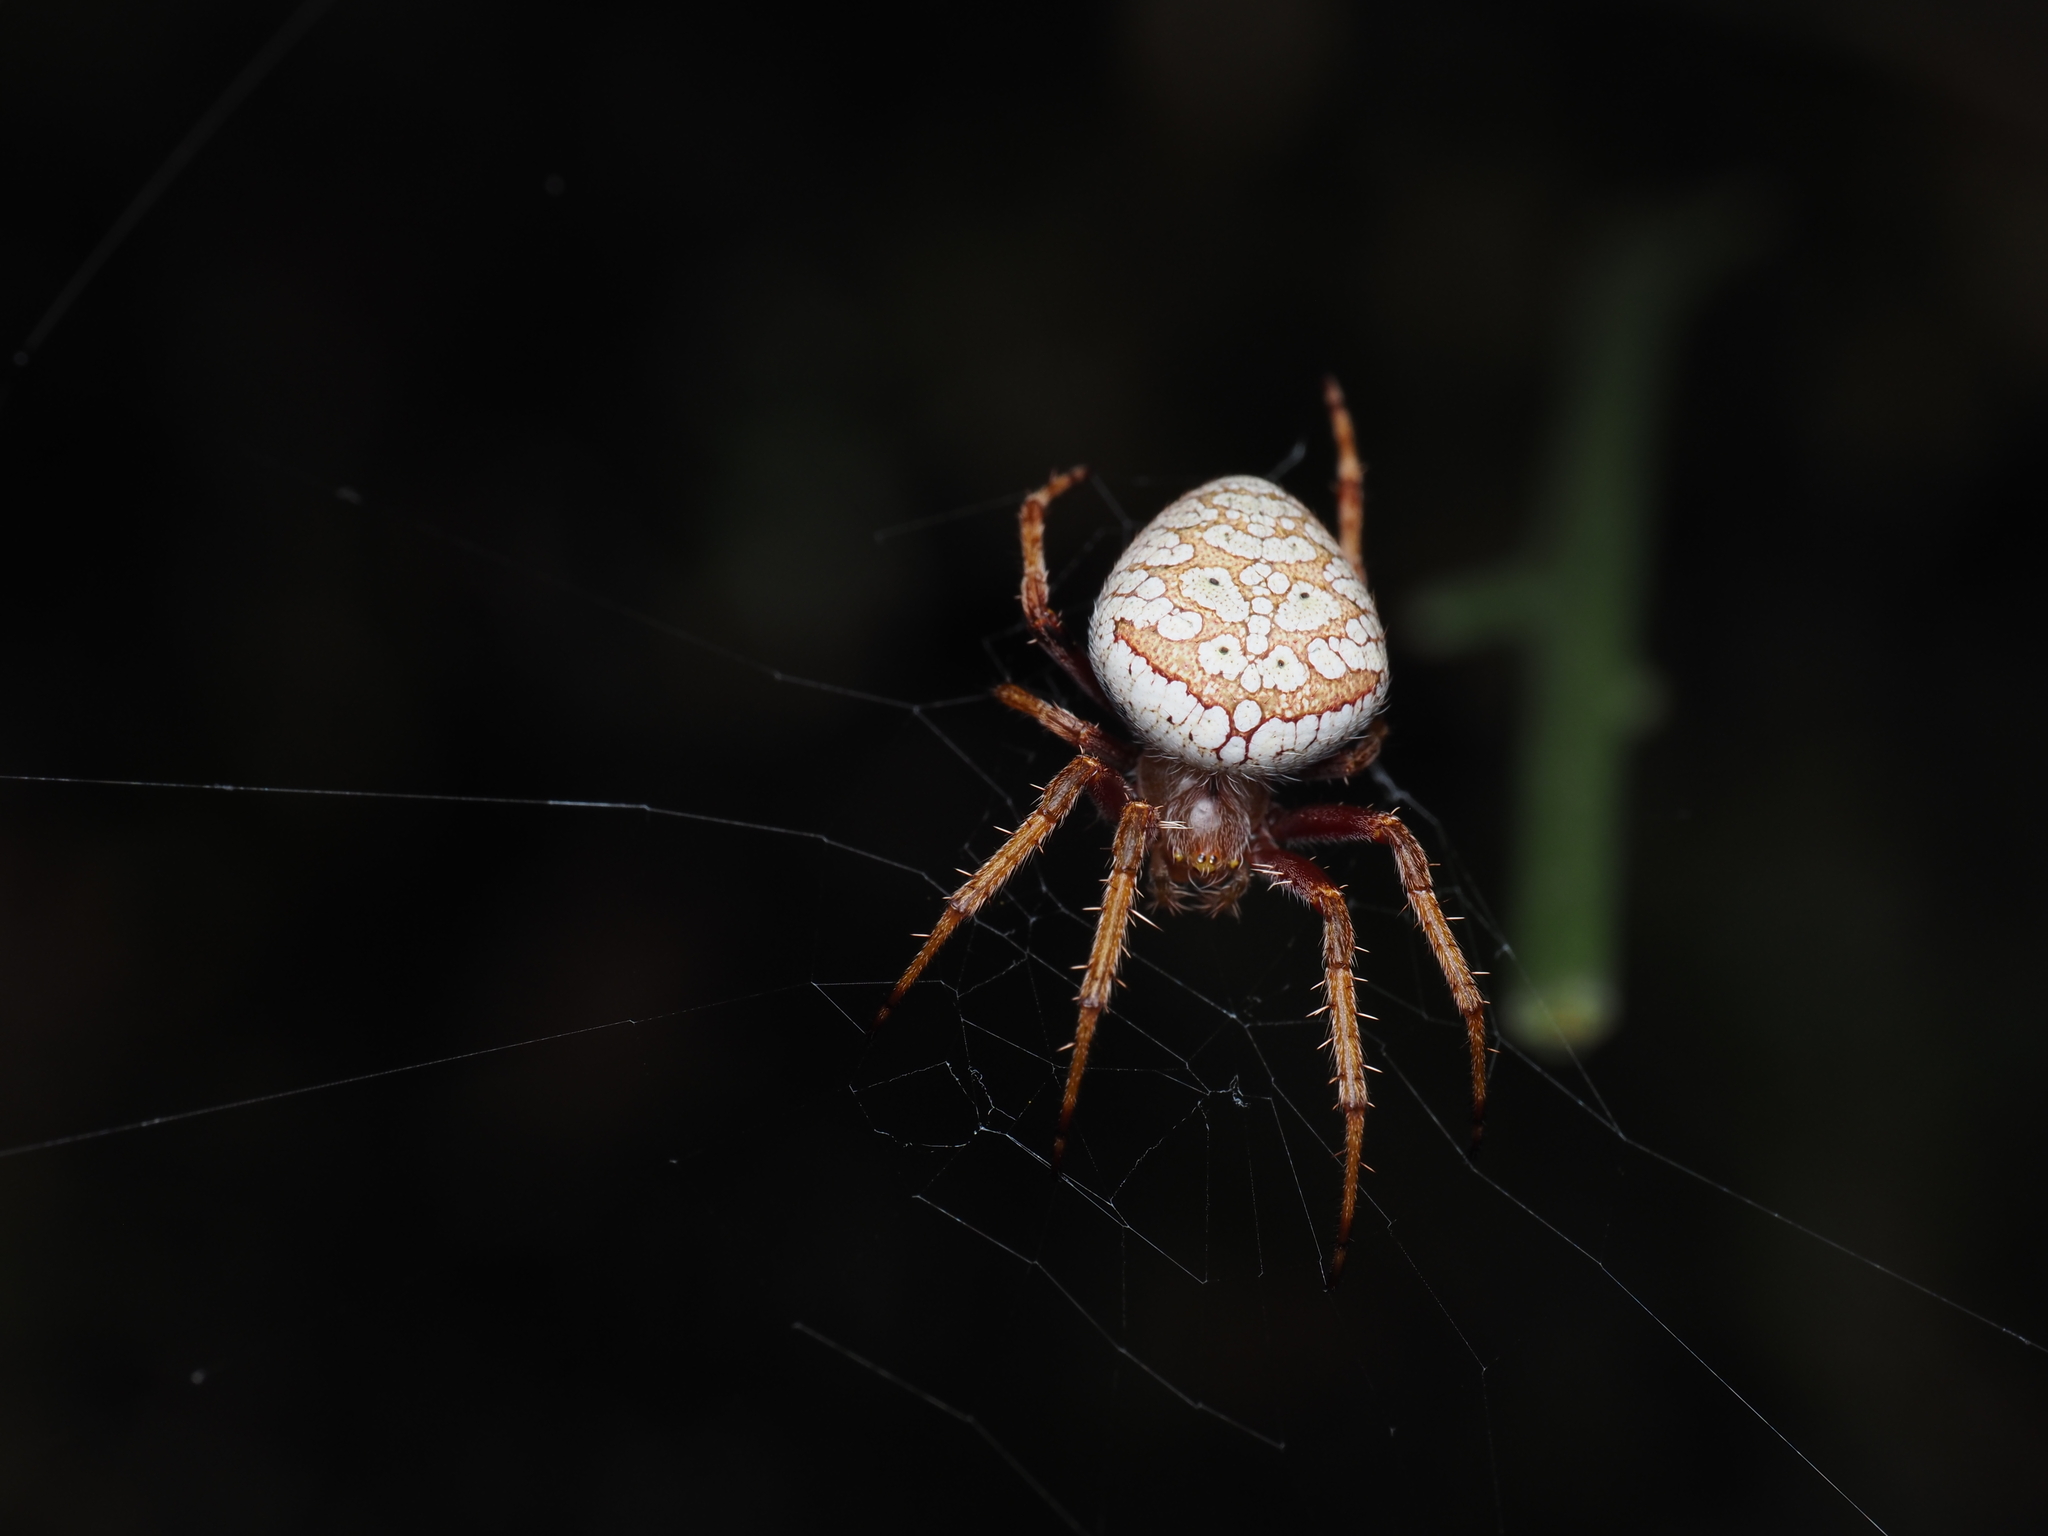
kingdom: Animalia
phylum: Arthropoda
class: Arachnida
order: Araneae
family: Araneidae
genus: Zealaranea
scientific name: Zealaranea trinotata
